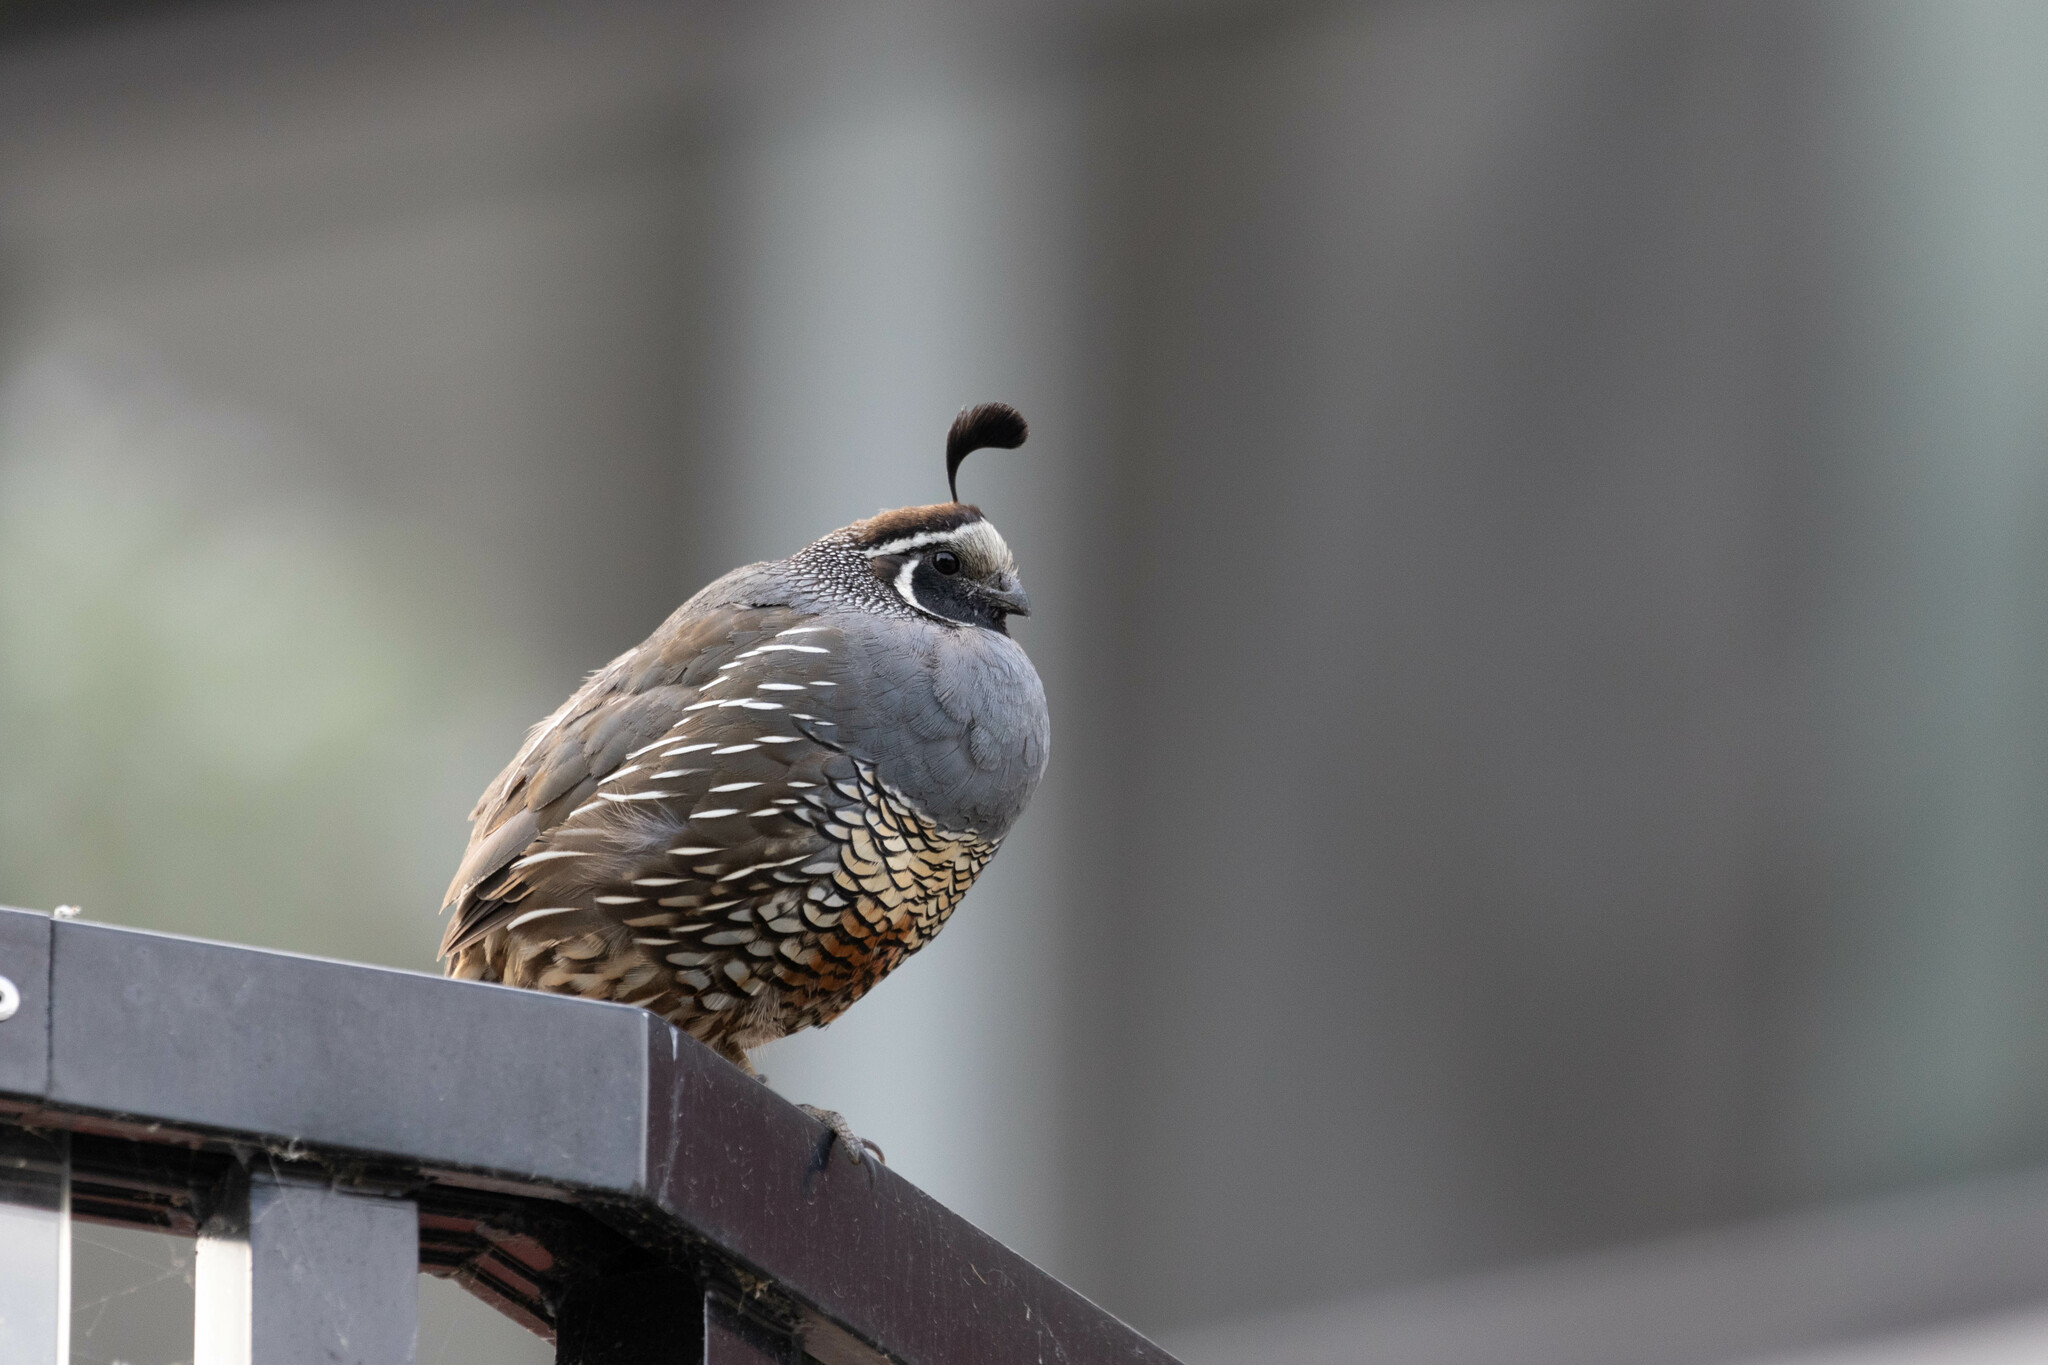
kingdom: Animalia
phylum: Chordata
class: Aves
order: Galliformes
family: Odontophoridae
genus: Callipepla
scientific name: Callipepla californica
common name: California quail
